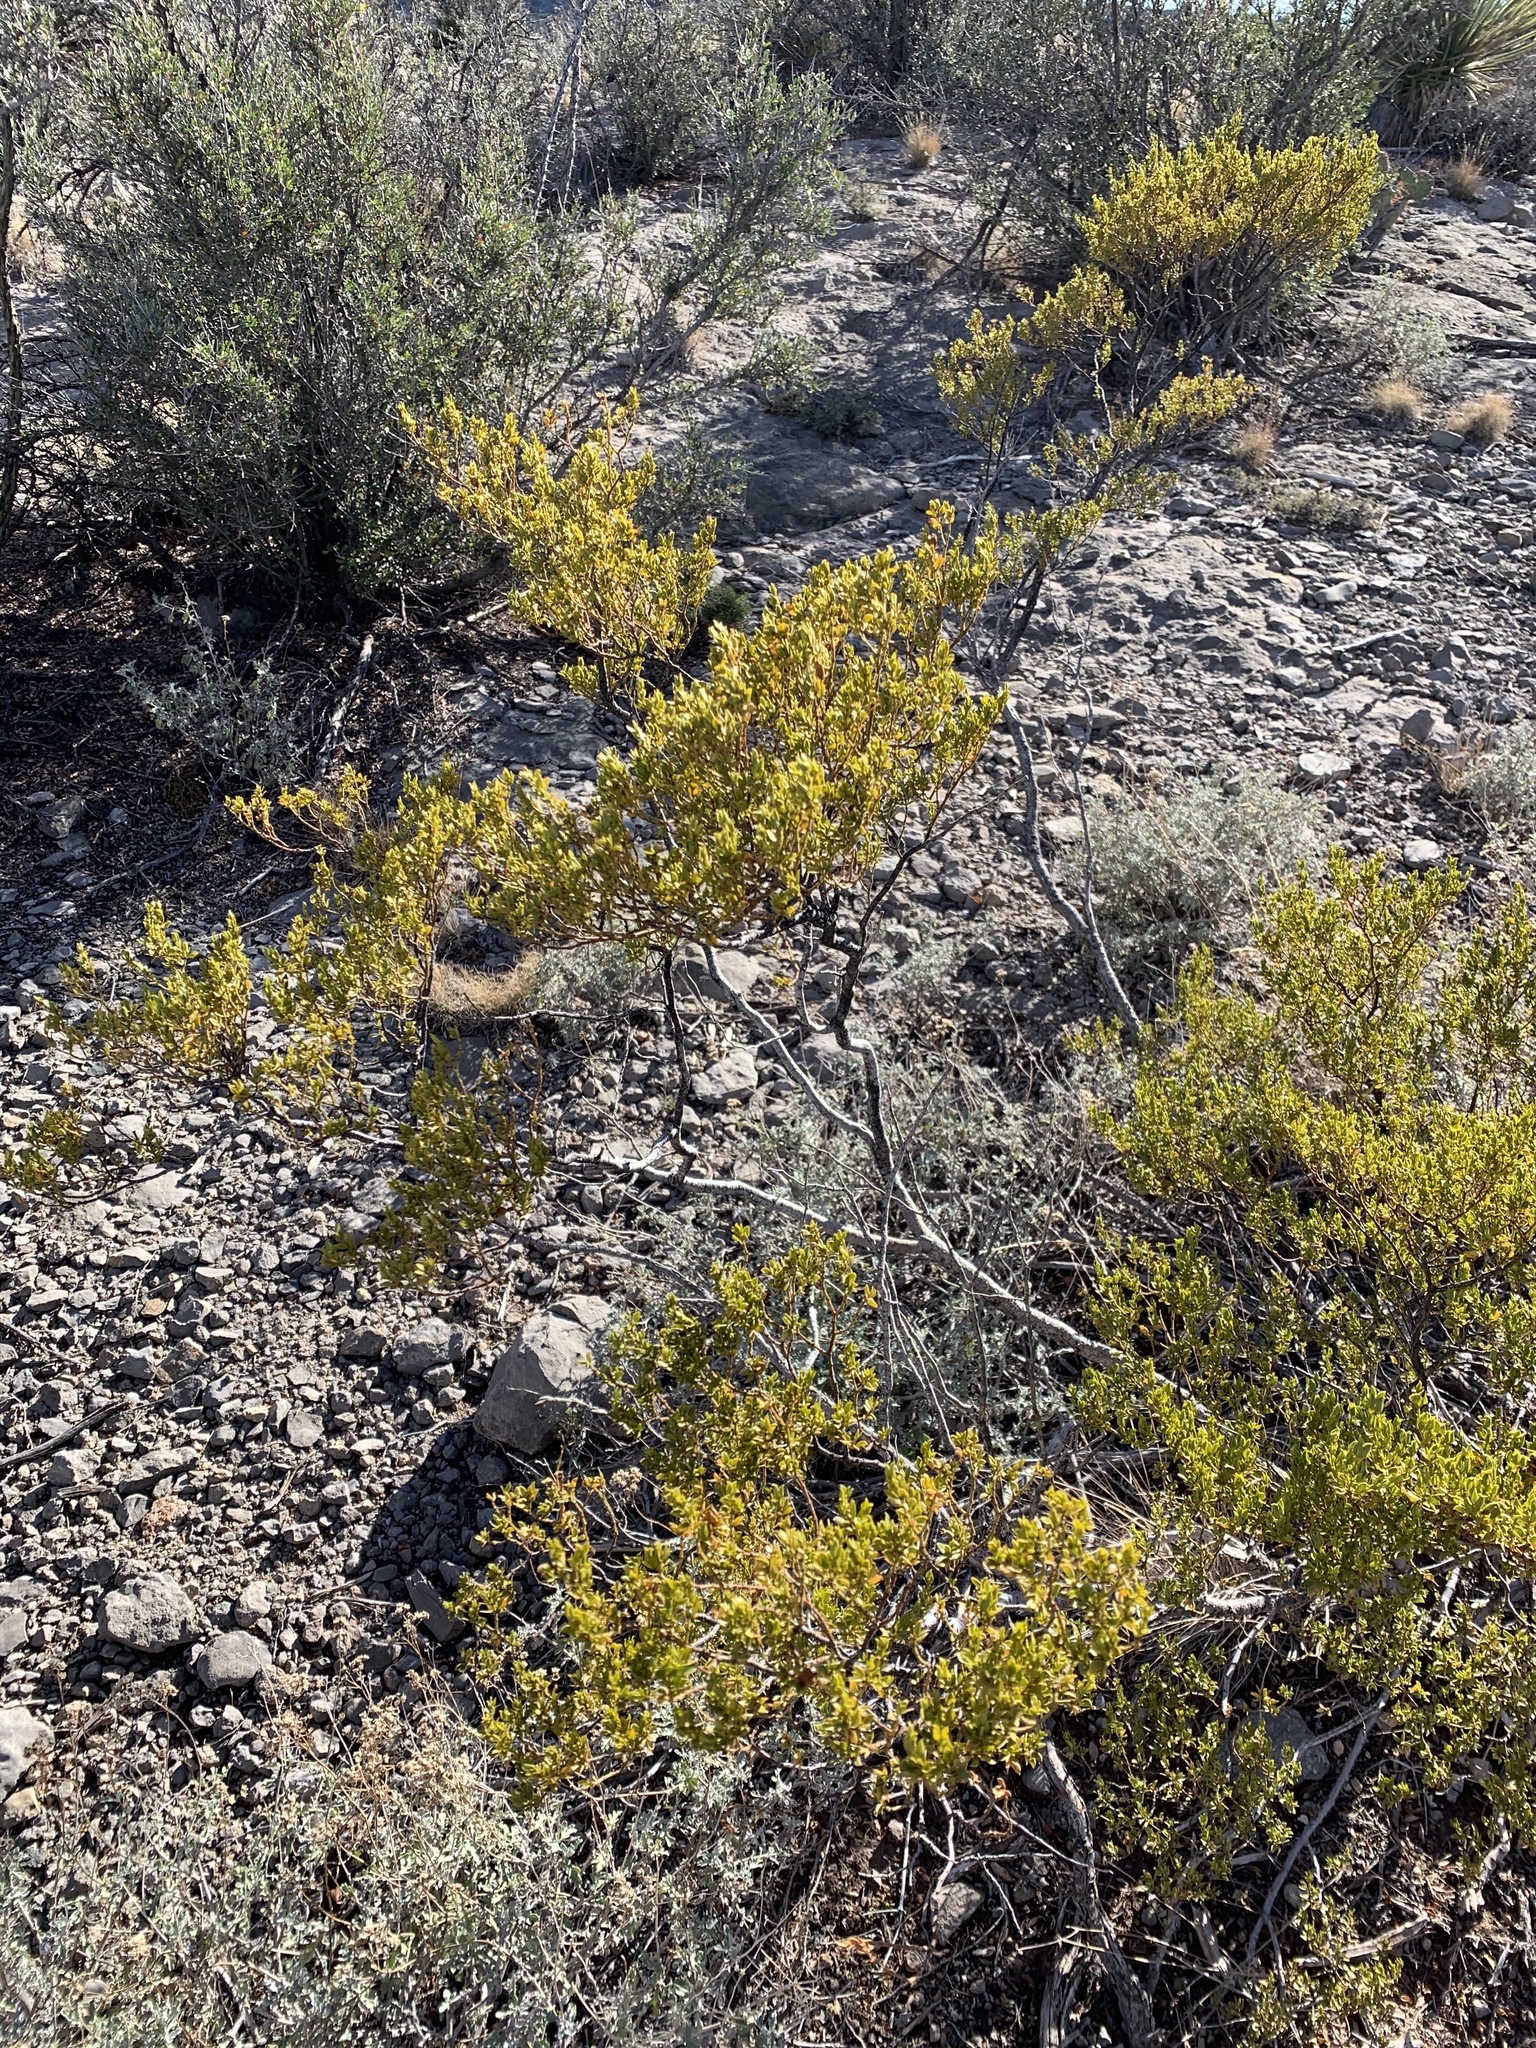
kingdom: Plantae
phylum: Tracheophyta
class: Magnoliopsida
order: Zygophyllales
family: Zygophyllaceae
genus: Larrea
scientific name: Larrea tridentata
